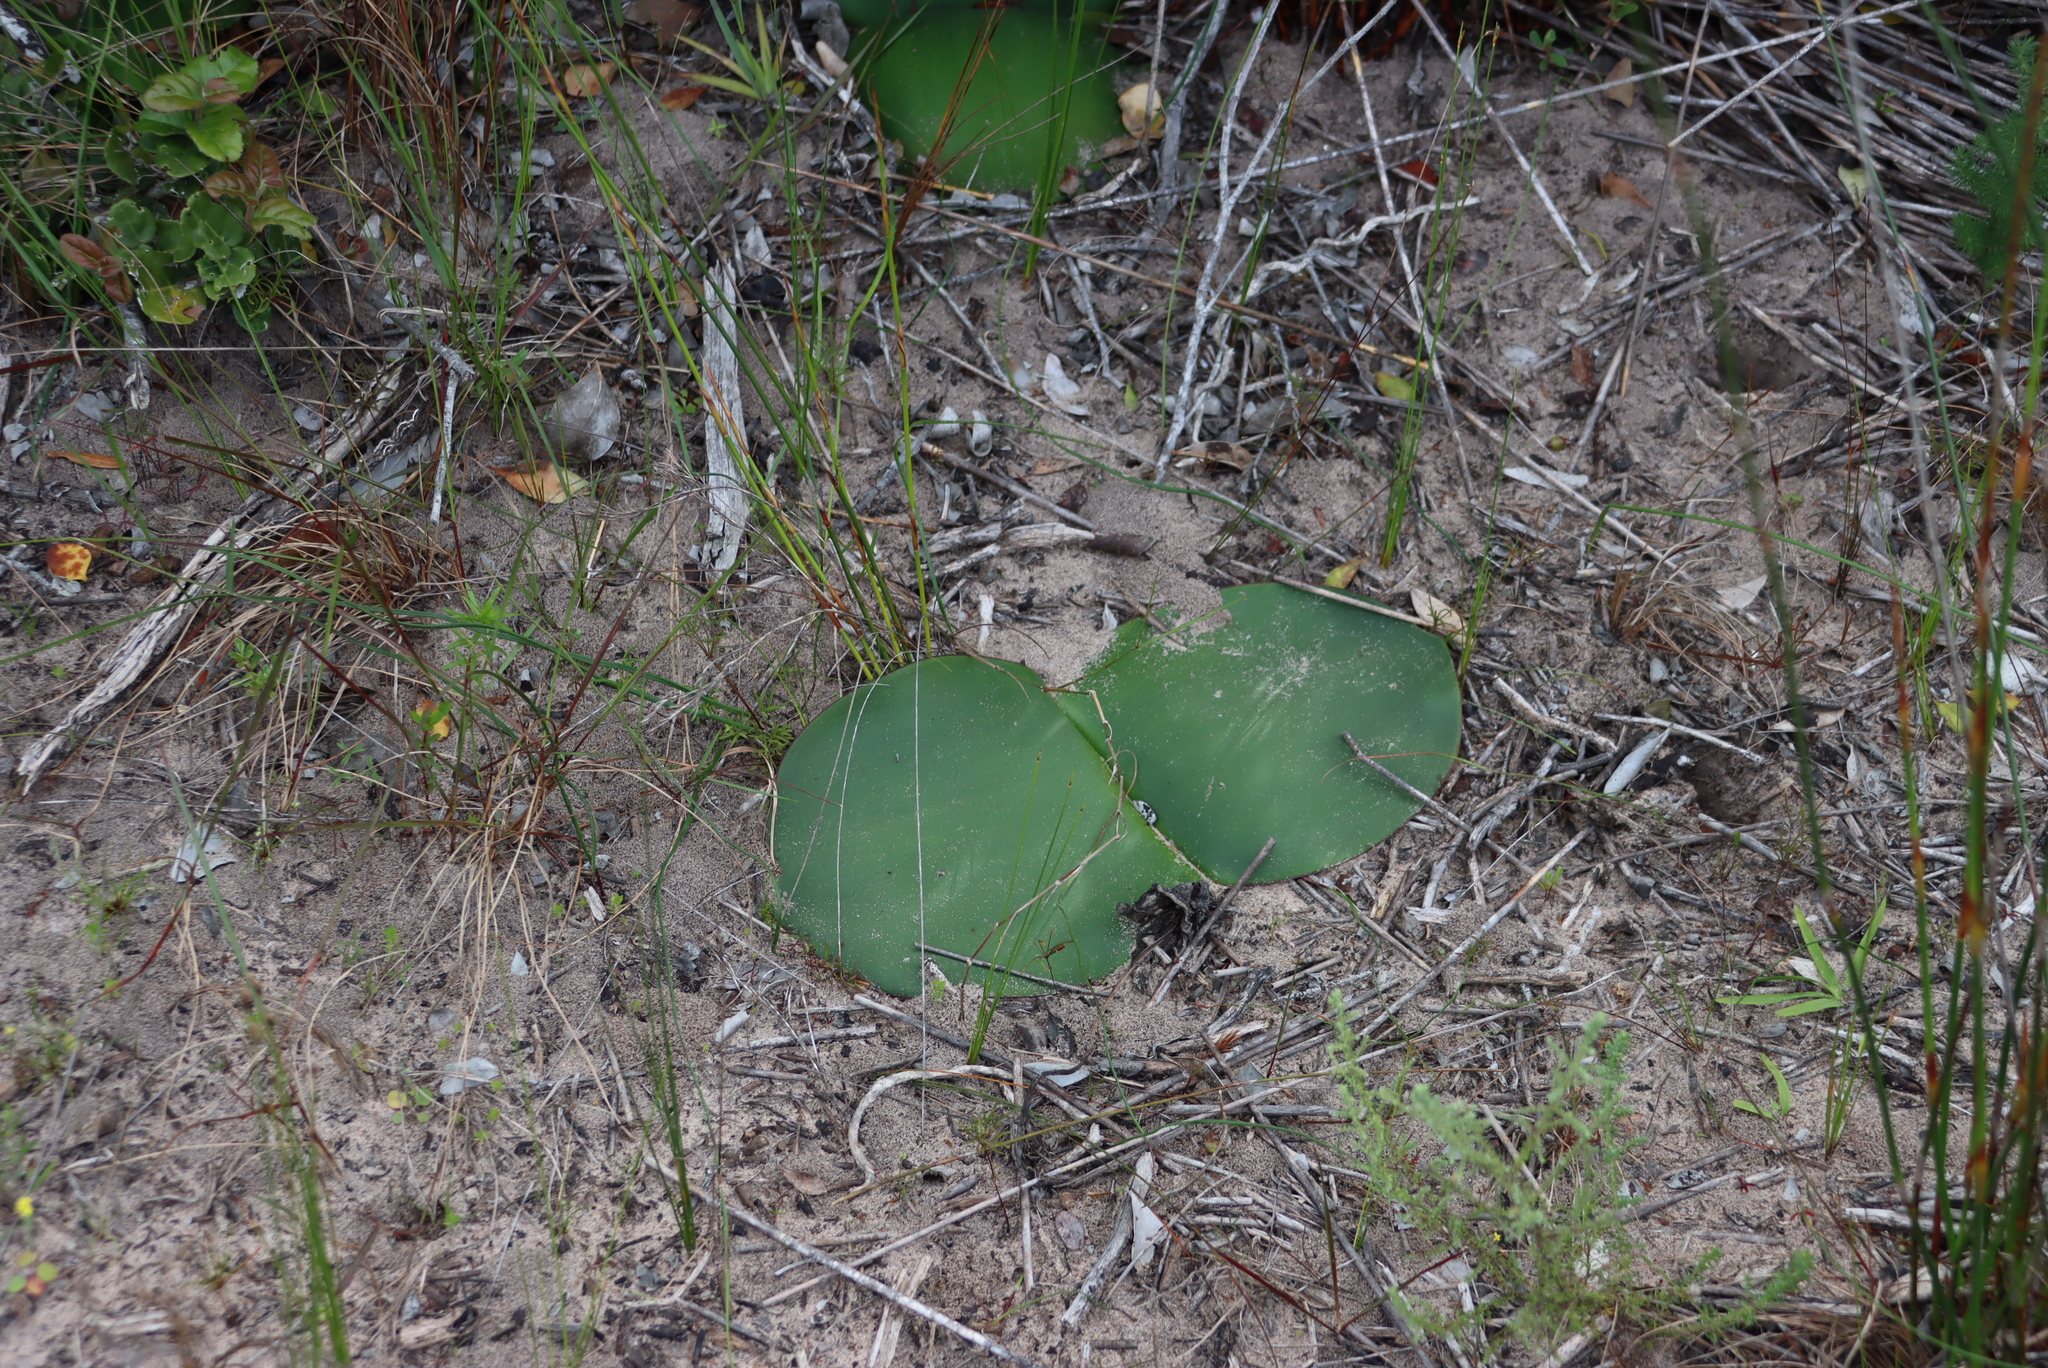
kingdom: Plantae
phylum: Tracheophyta
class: Liliopsida
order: Asparagales
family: Amaryllidaceae
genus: Haemanthus
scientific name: Haemanthus sanguineus
